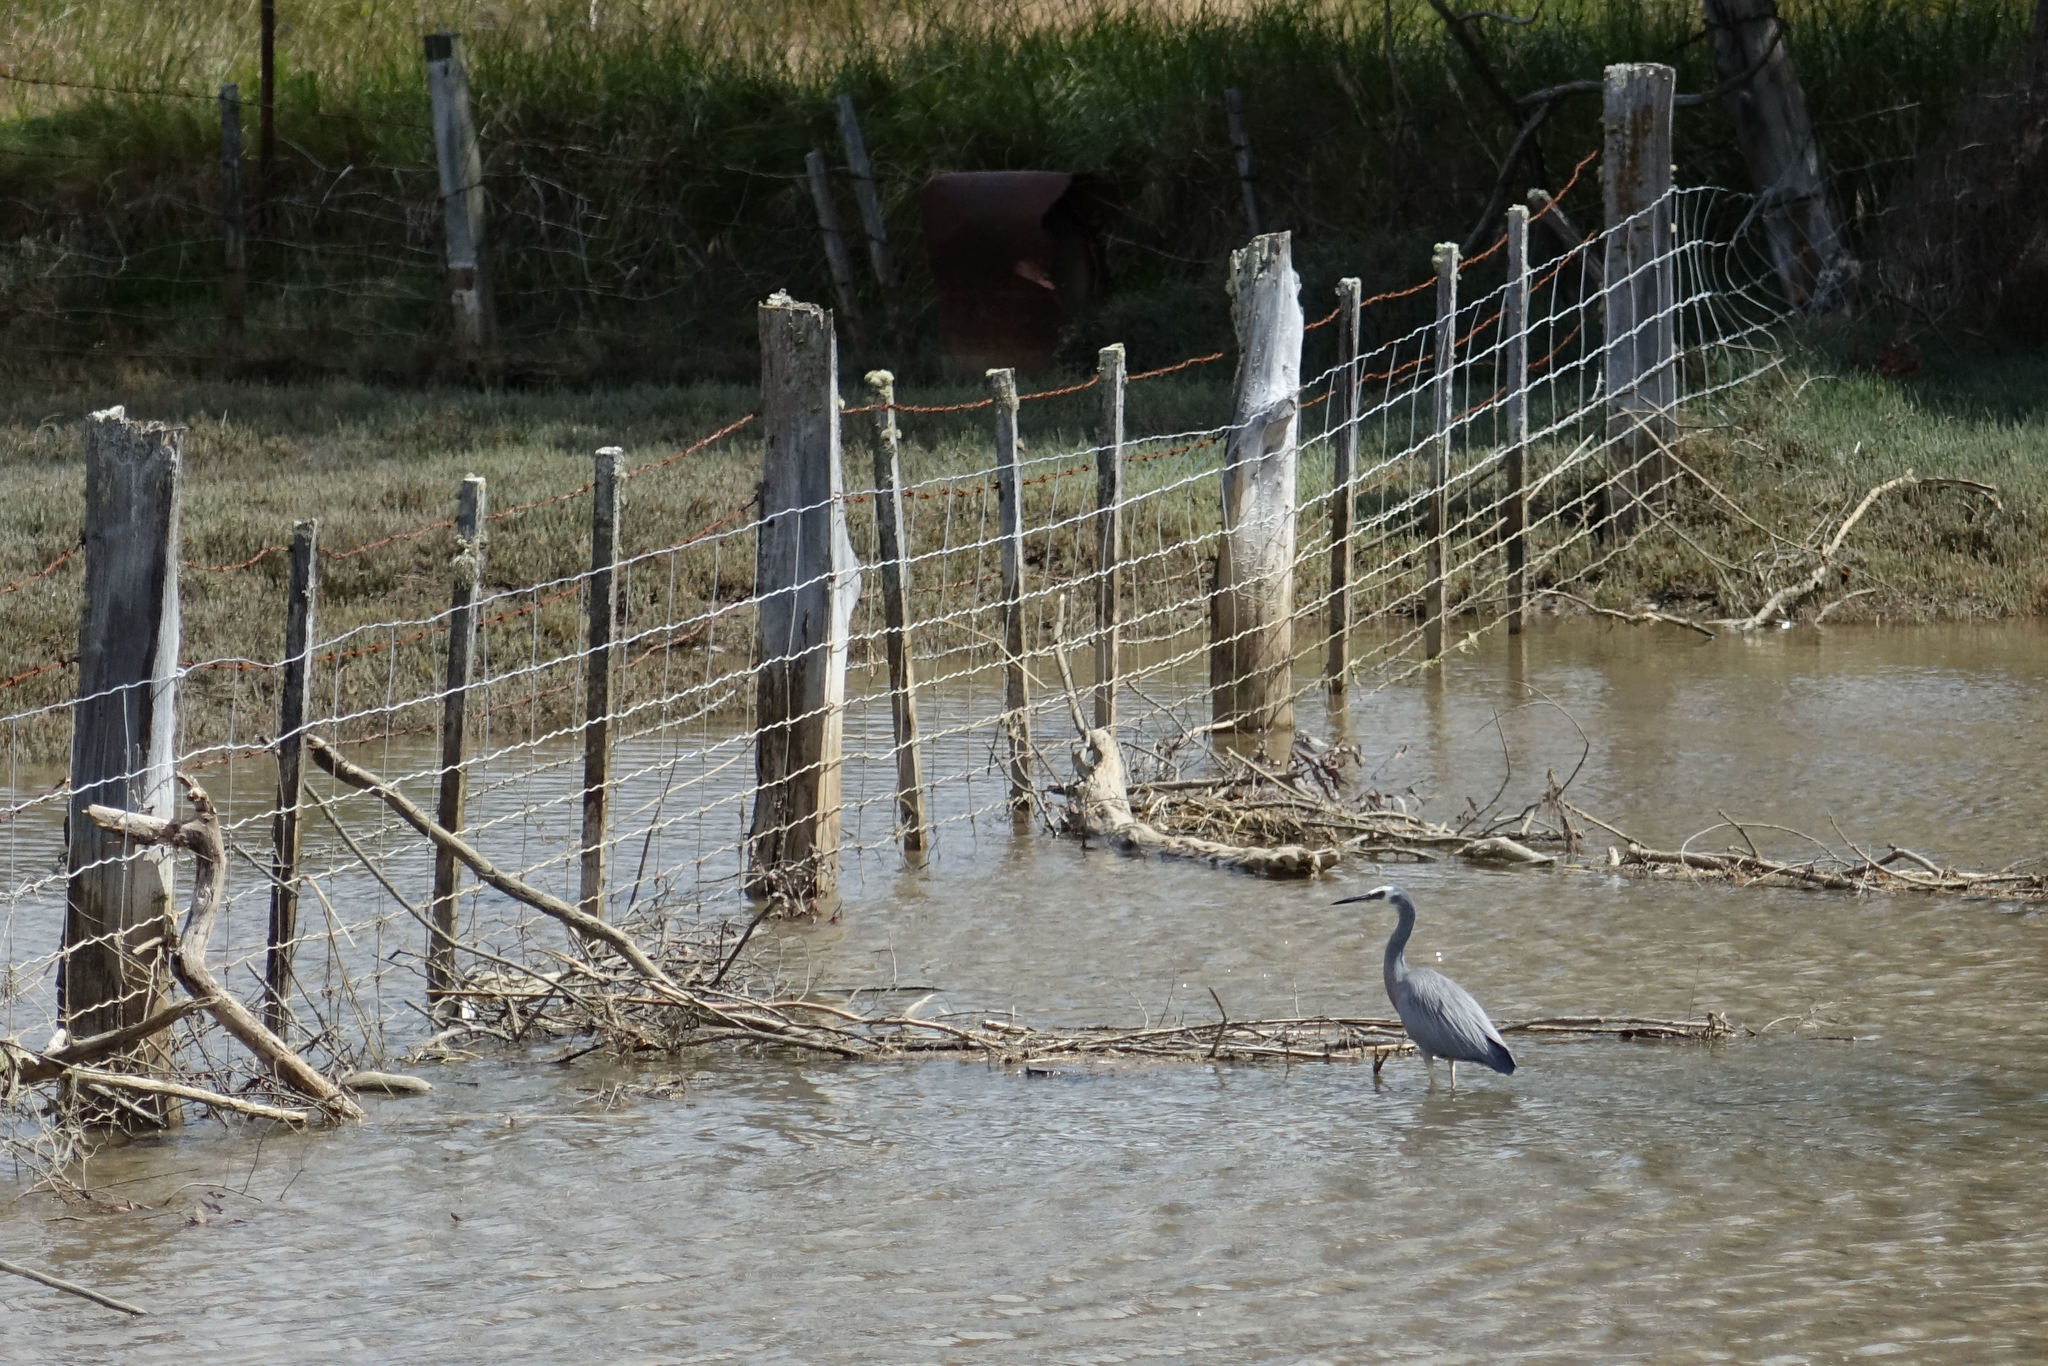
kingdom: Animalia
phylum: Chordata
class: Aves
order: Pelecaniformes
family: Ardeidae
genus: Egretta
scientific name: Egretta novaehollandiae
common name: White-faced heron
